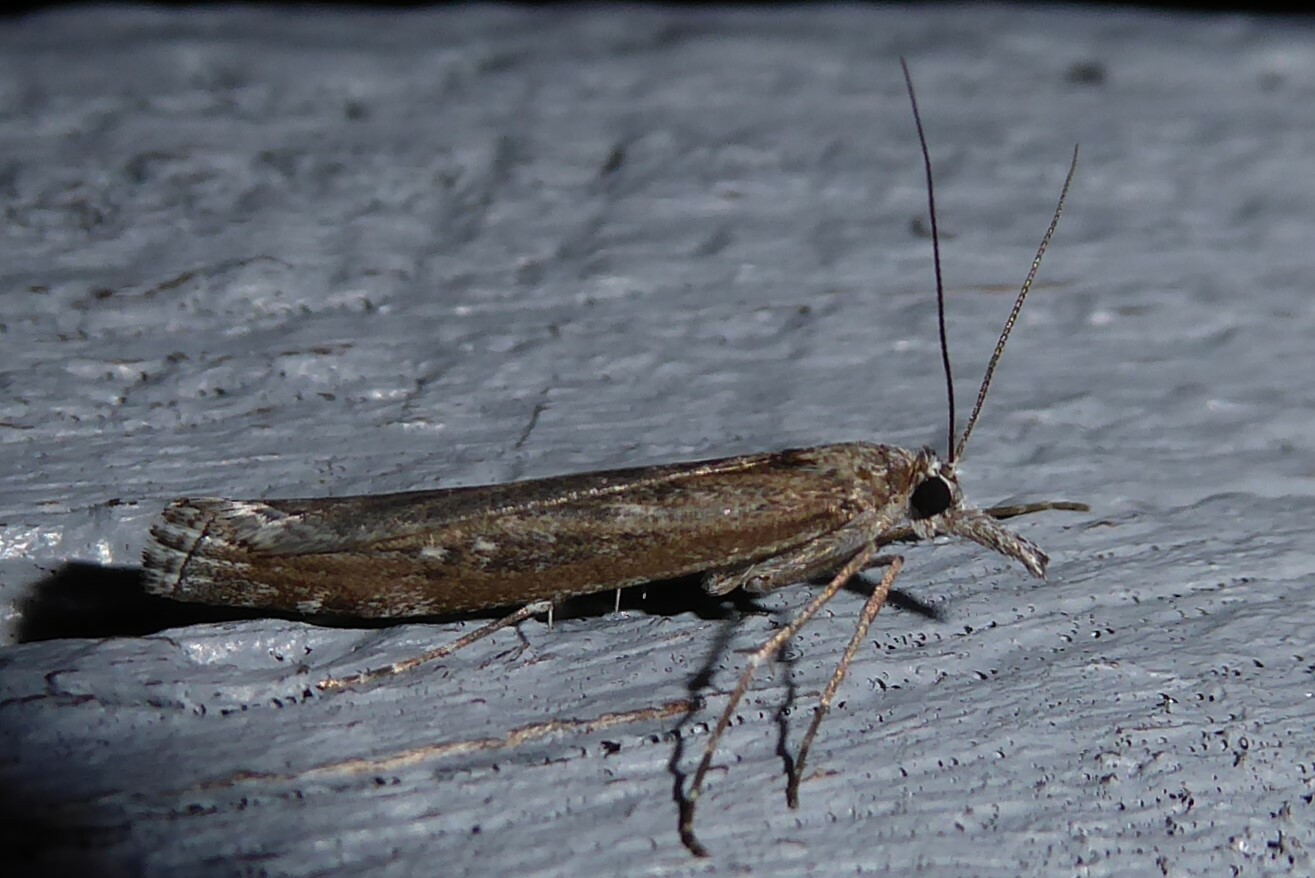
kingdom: Animalia
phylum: Arthropoda
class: Insecta
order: Lepidoptera
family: Crambidae
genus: Orocrambus
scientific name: Orocrambus cyclopicus
